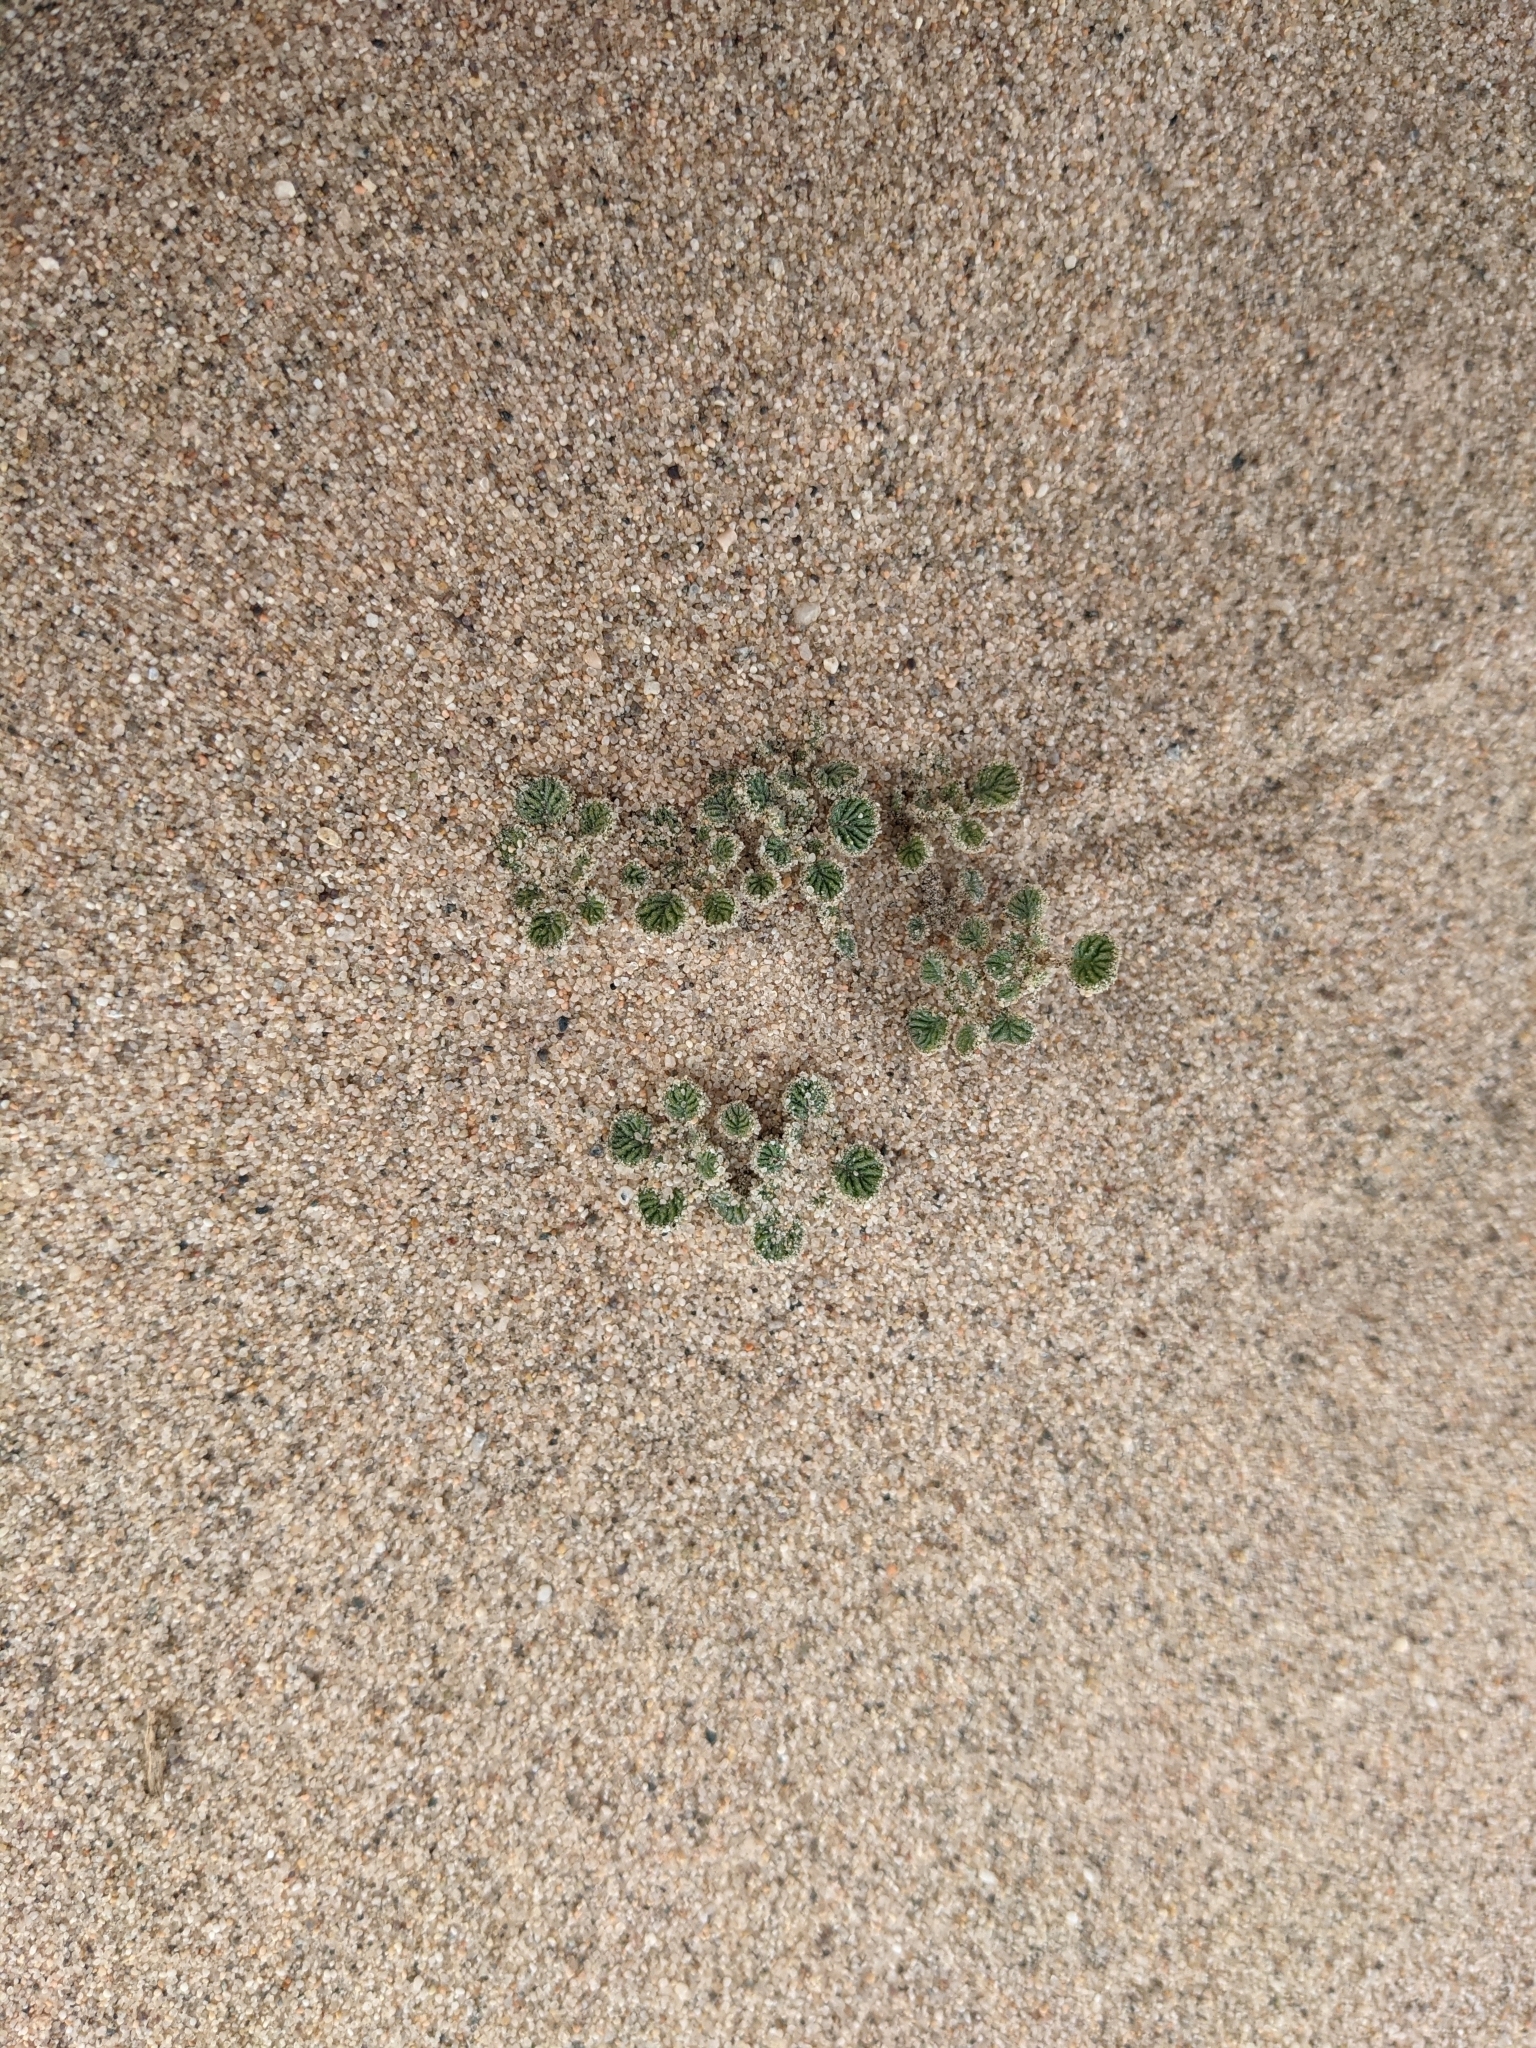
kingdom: Plantae
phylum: Tracheophyta
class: Magnoliopsida
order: Boraginales
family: Ehretiaceae
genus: Tiquilia
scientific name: Tiquilia plicata
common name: Fan-leaf tiquilia
